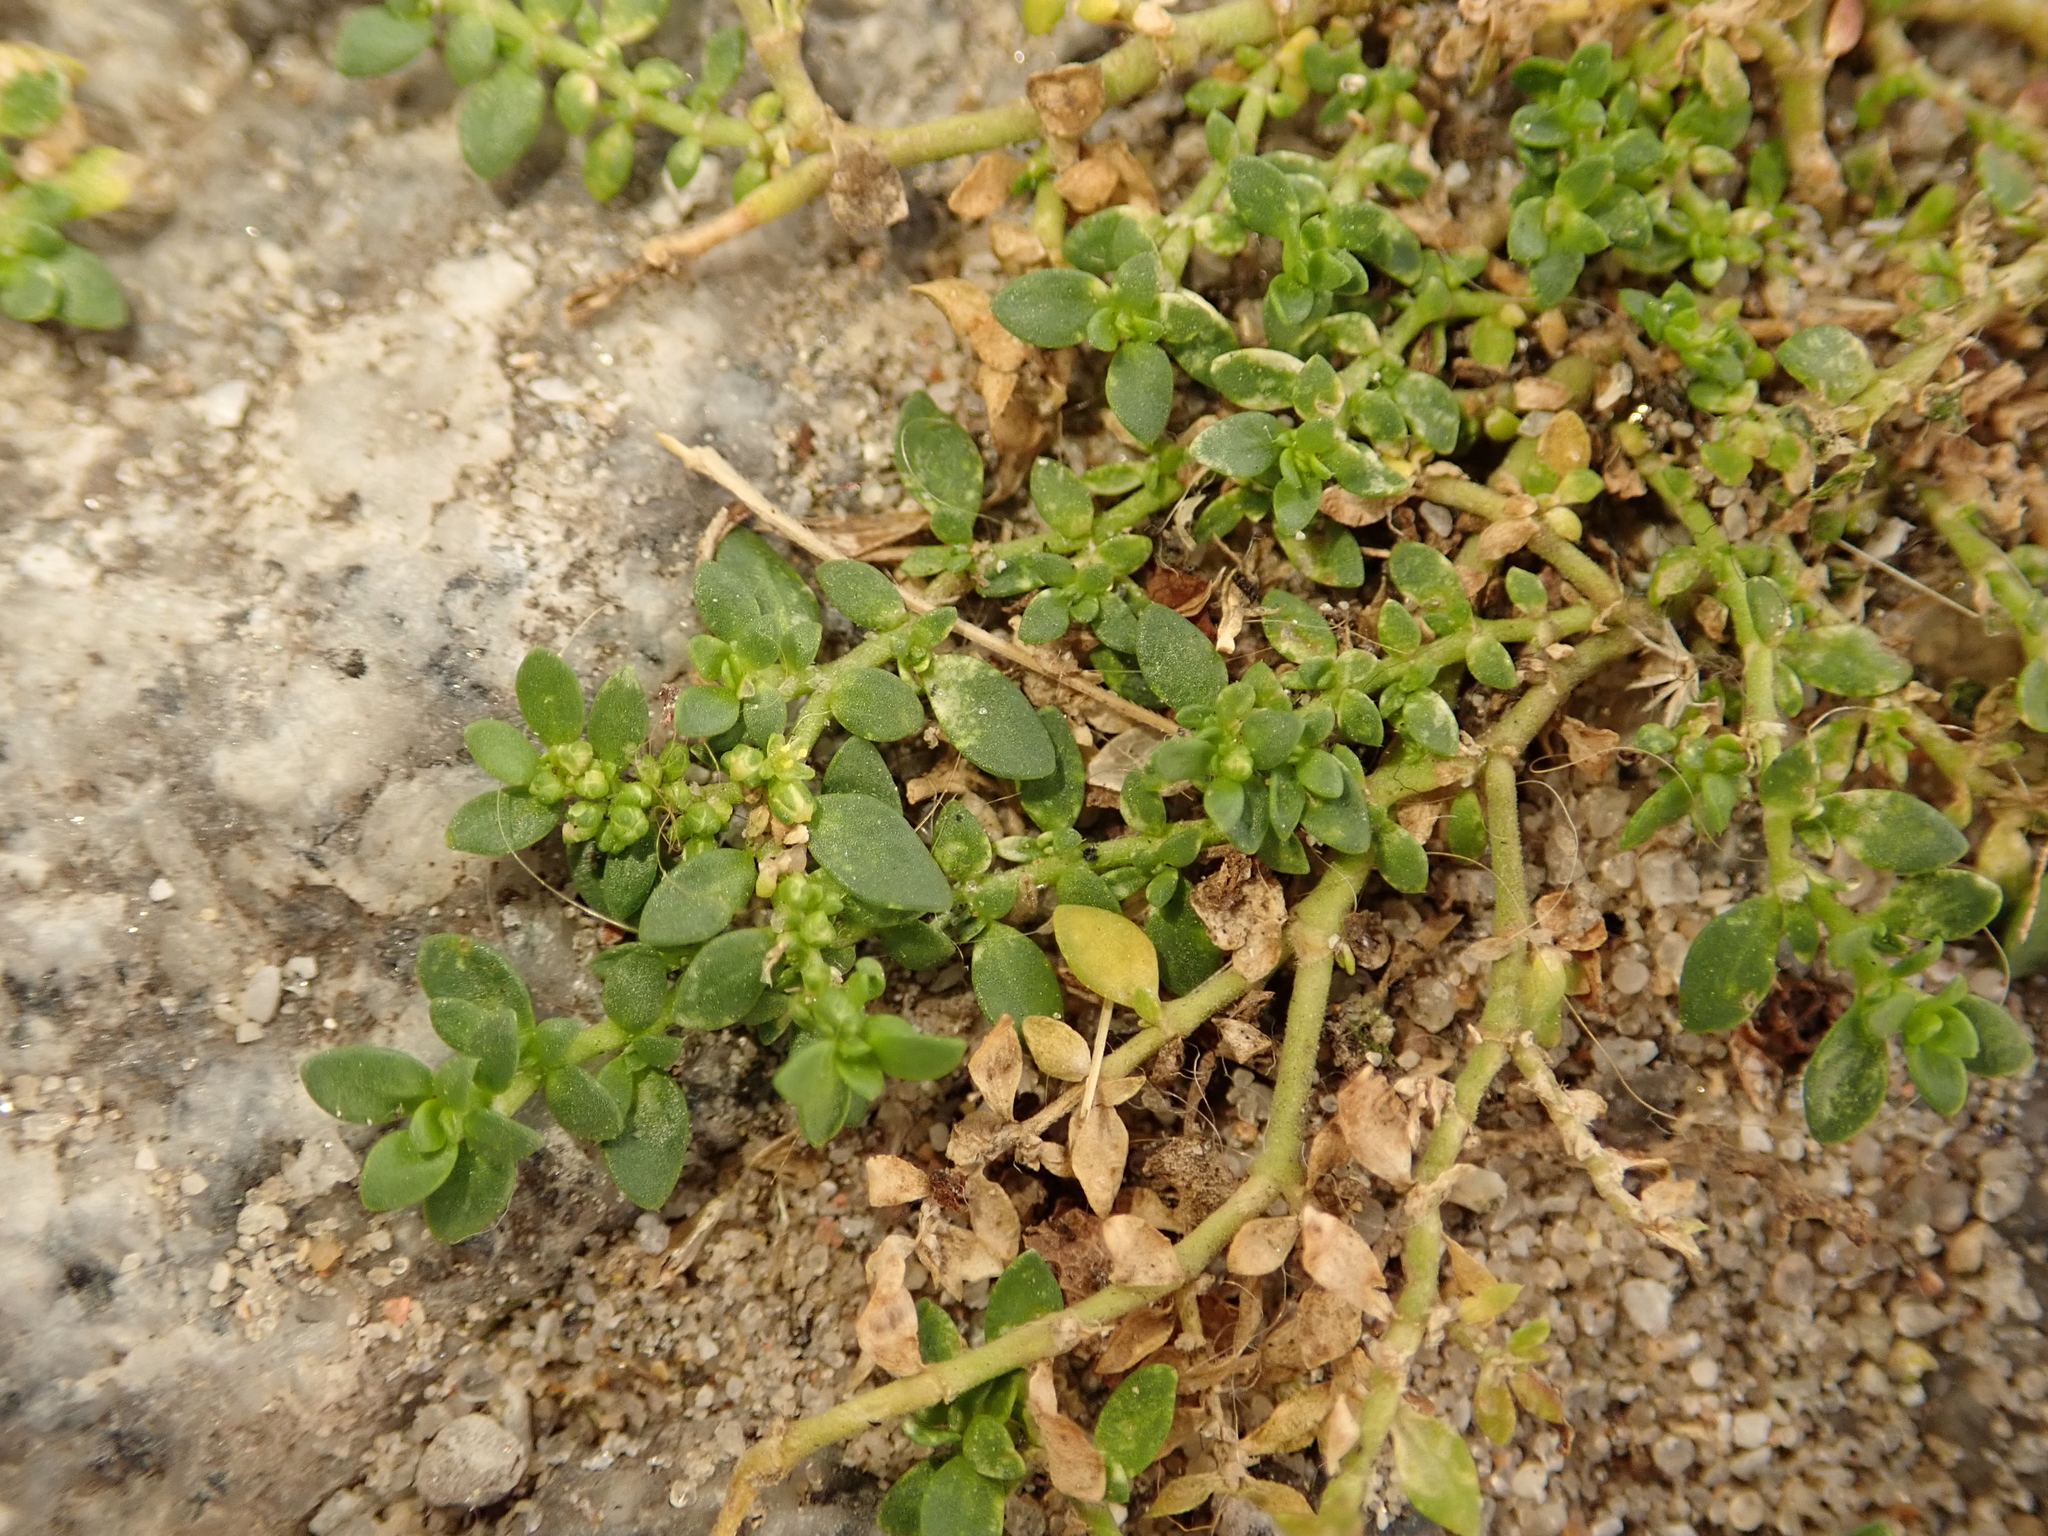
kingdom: Plantae
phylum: Tracheophyta
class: Magnoliopsida
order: Caryophyllales
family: Caryophyllaceae
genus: Herniaria
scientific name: Herniaria glabra
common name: Smooth rupturewort
